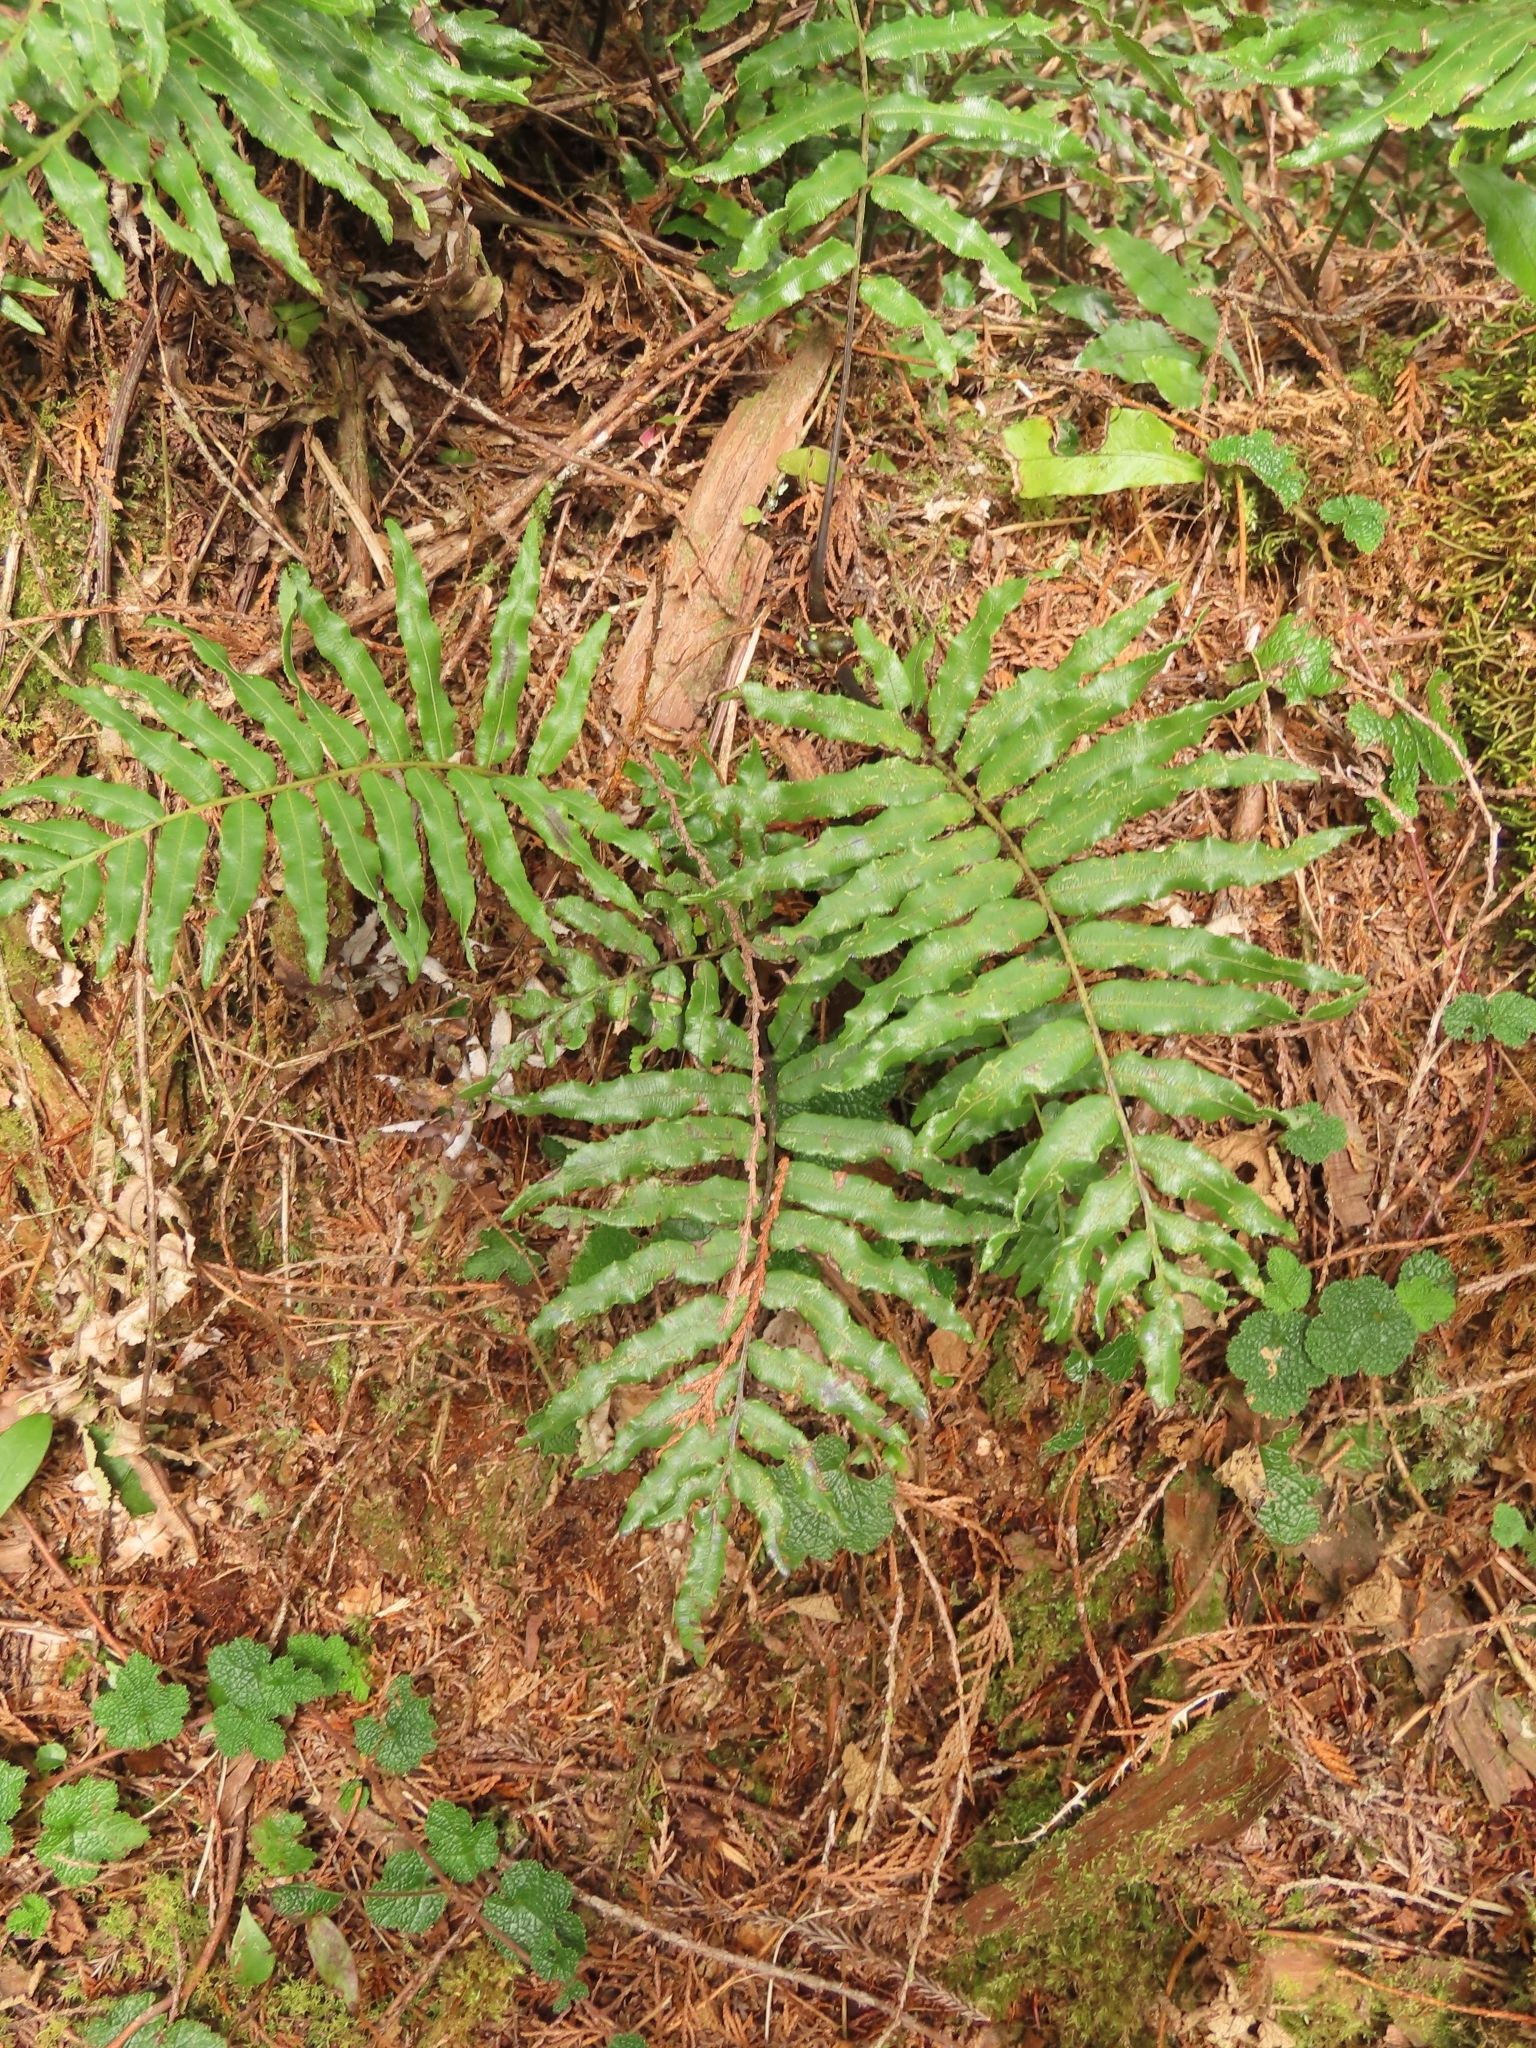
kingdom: Plantae
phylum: Tracheophyta
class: Polypodiopsida
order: Cyatheales
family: Plagiogyriaceae
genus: Plagiogyria
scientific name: Plagiogyria euphlebia
